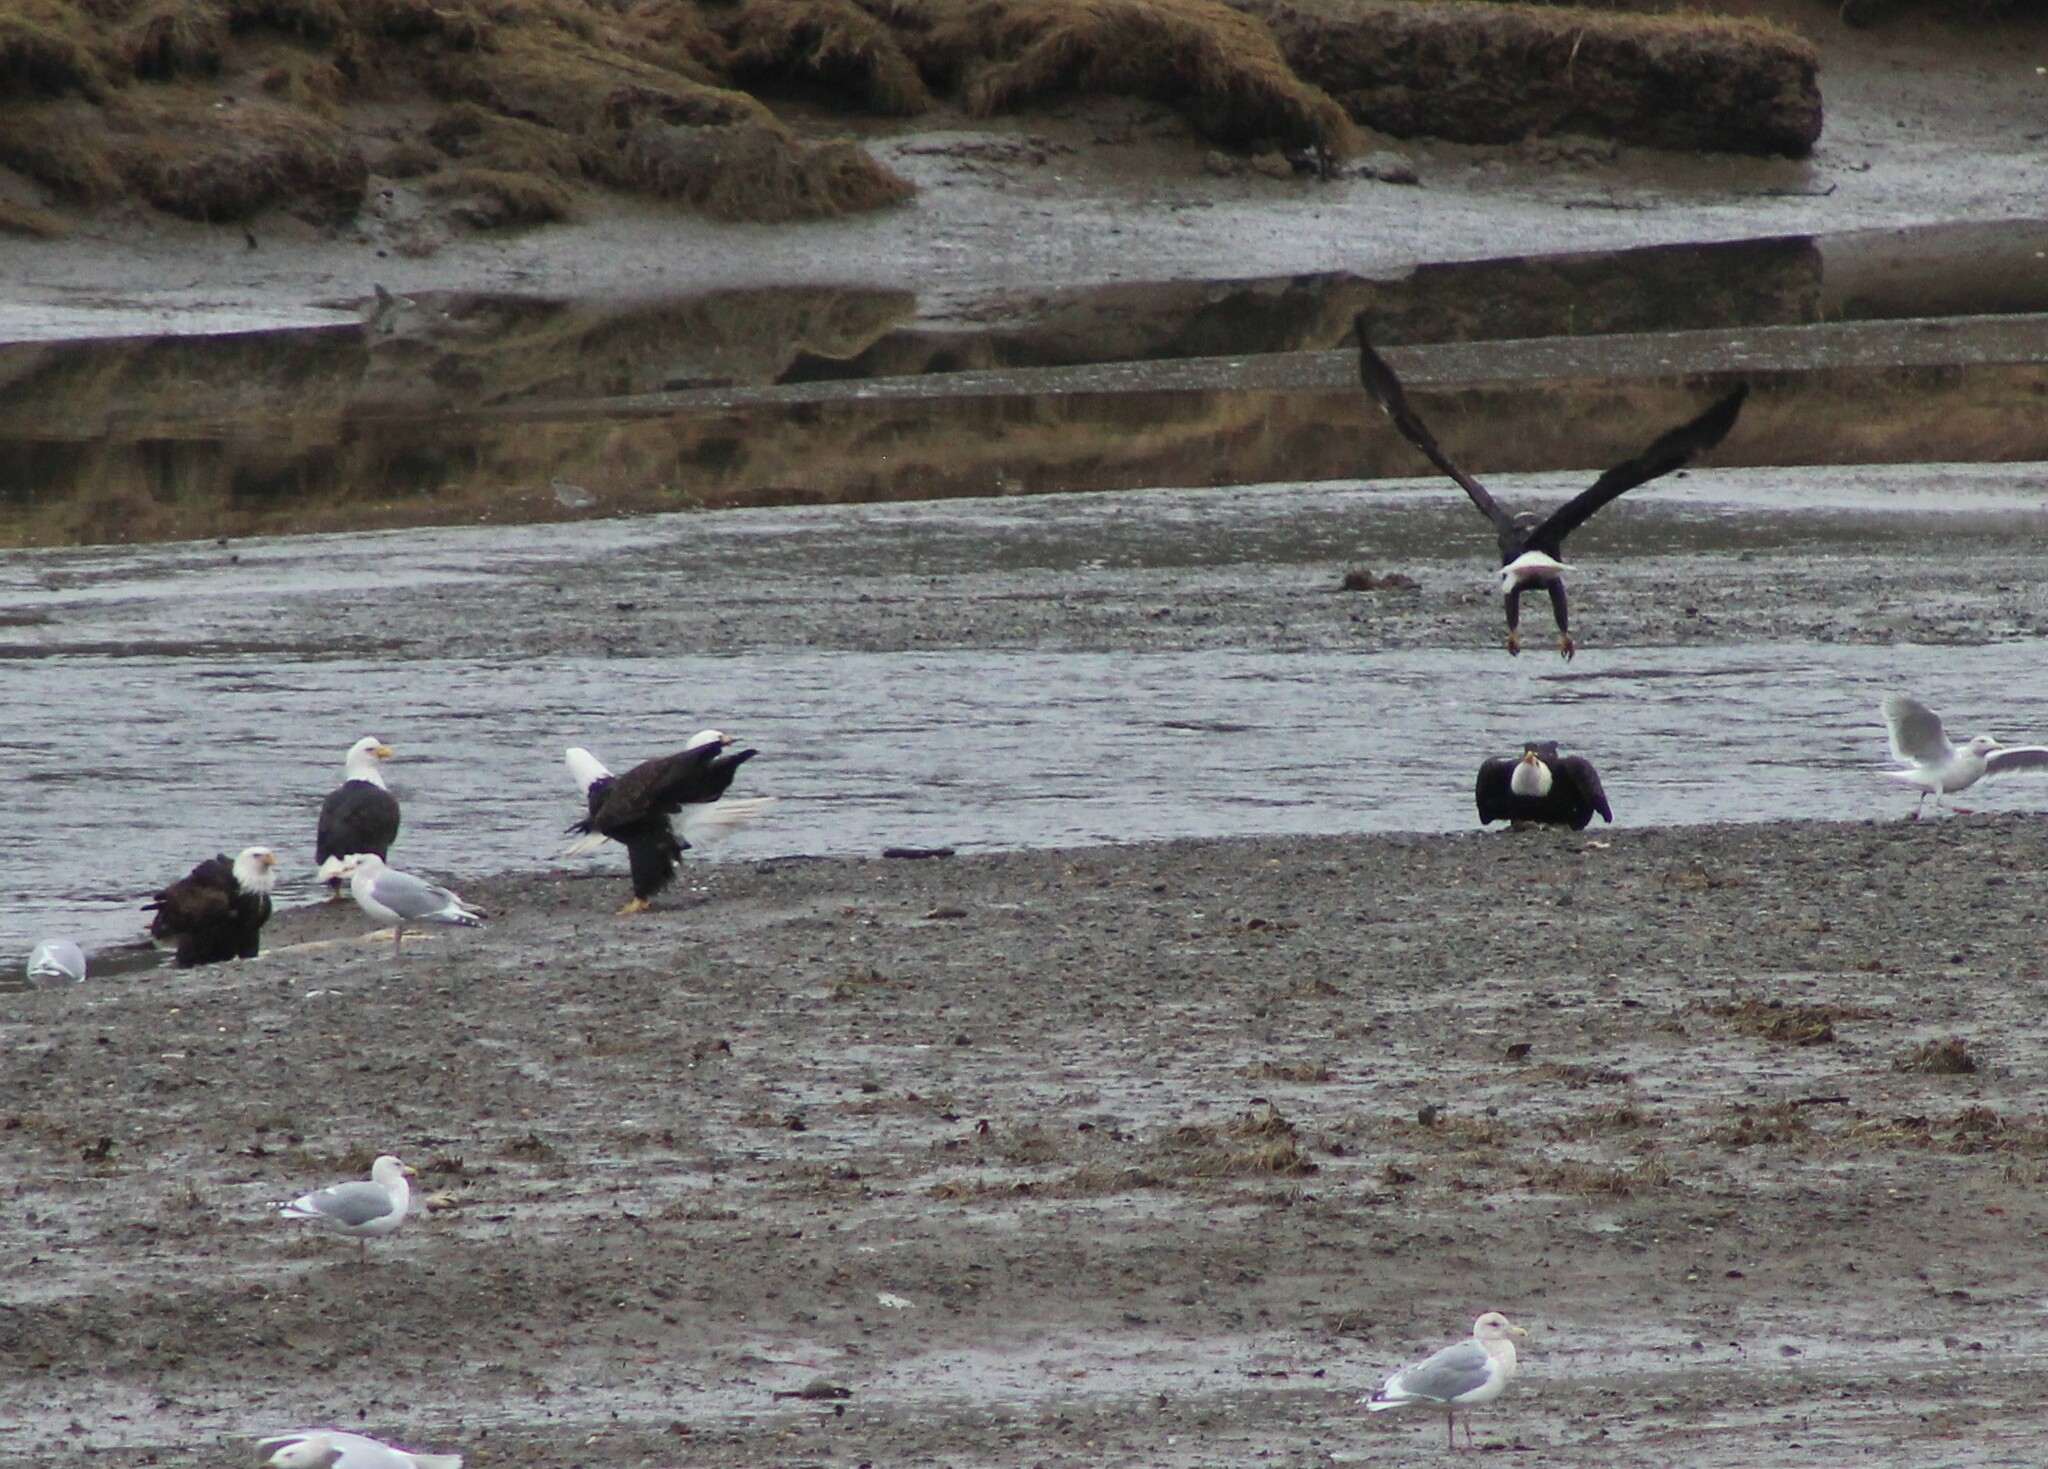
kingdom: Animalia
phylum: Chordata
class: Aves
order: Accipitriformes
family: Accipitridae
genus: Haliaeetus
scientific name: Haliaeetus leucocephalus
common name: Bald eagle
